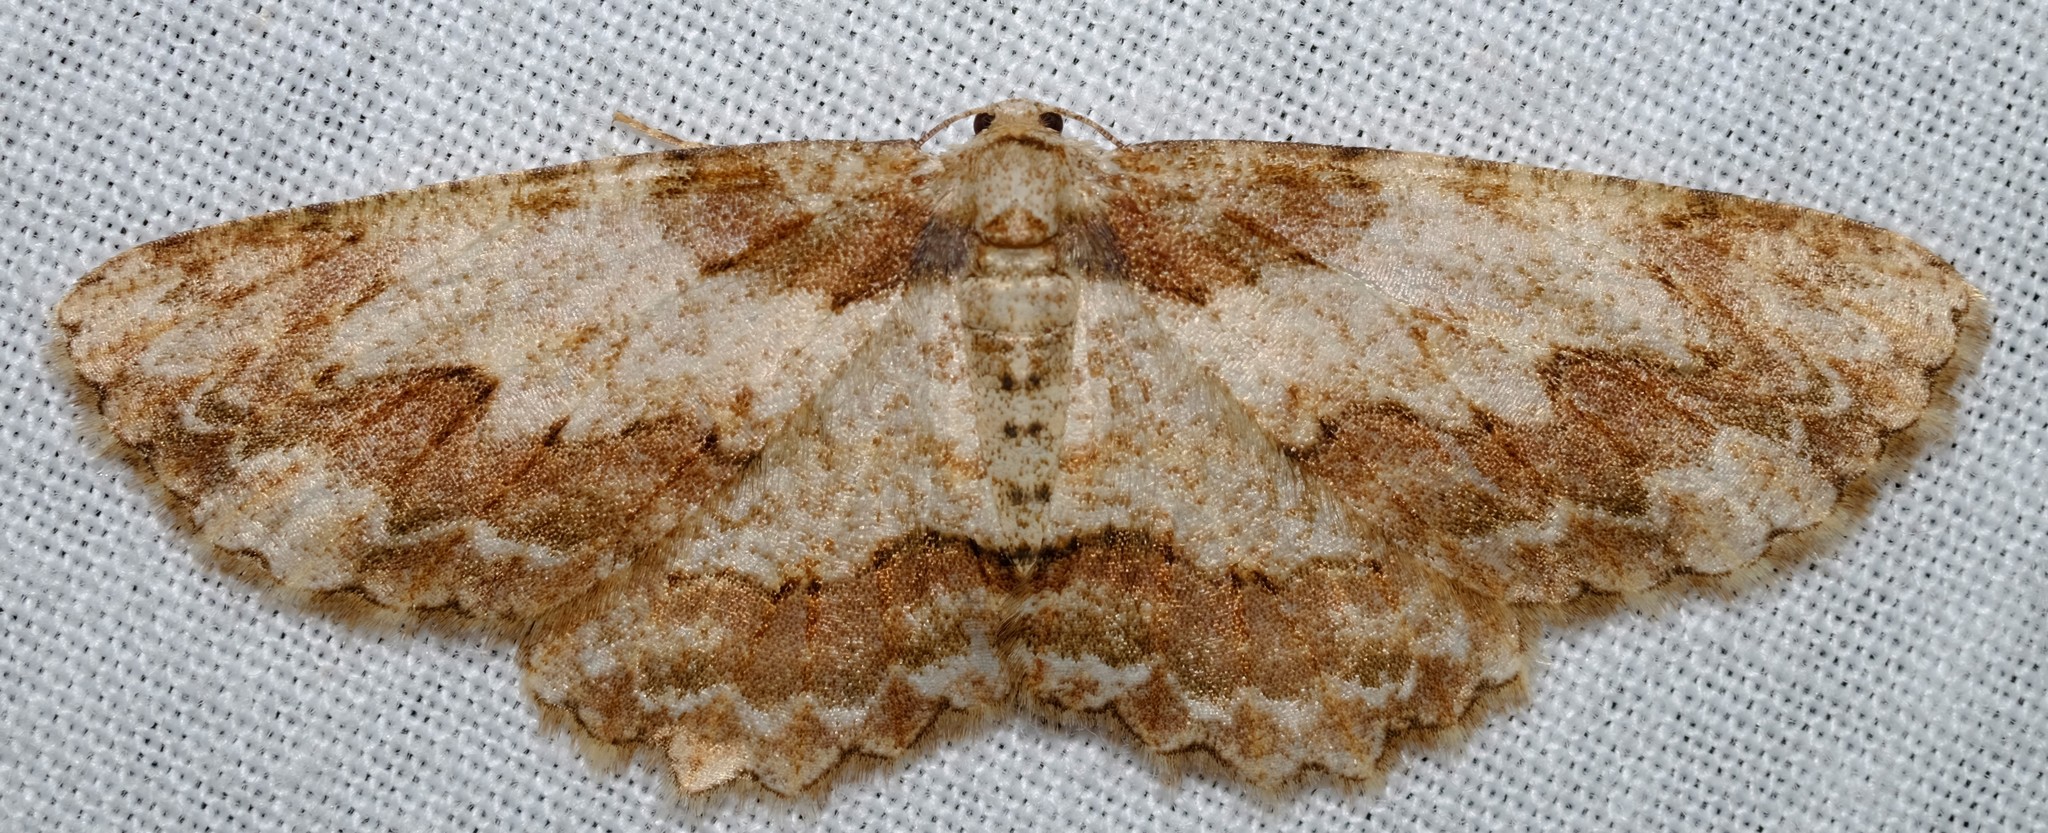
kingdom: Animalia
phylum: Arthropoda
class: Insecta
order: Lepidoptera
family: Geometridae
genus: Ectropis
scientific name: Ectropis bispinaria
